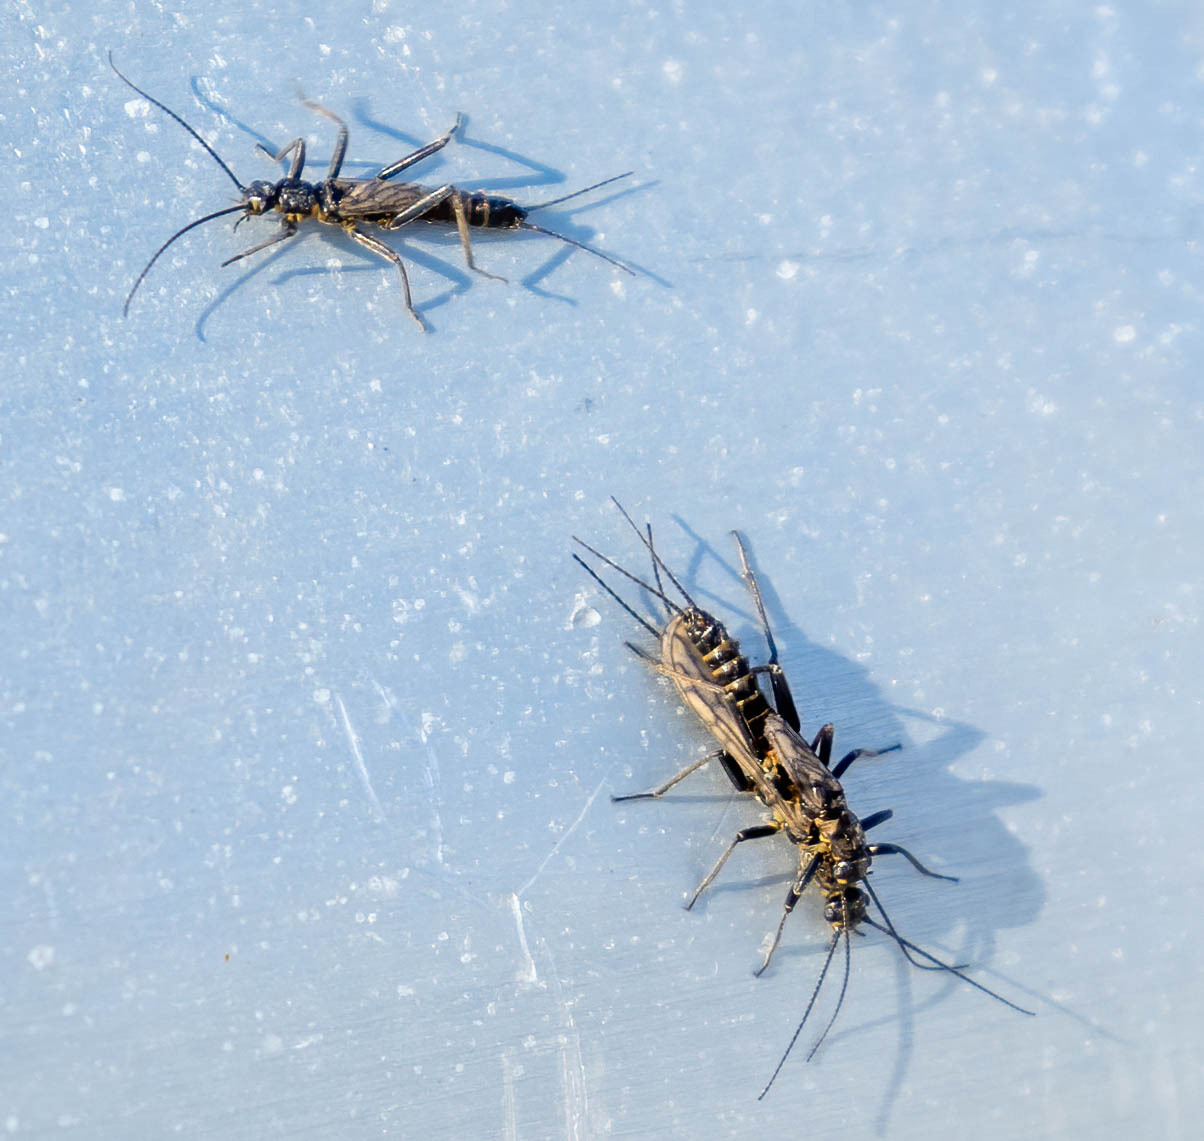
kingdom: Animalia
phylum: Arthropoda
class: Insecta
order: Plecoptera
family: Capniidae
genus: Allocapnia
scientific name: Allocapnia vivipara
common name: Shortwing snowfly
